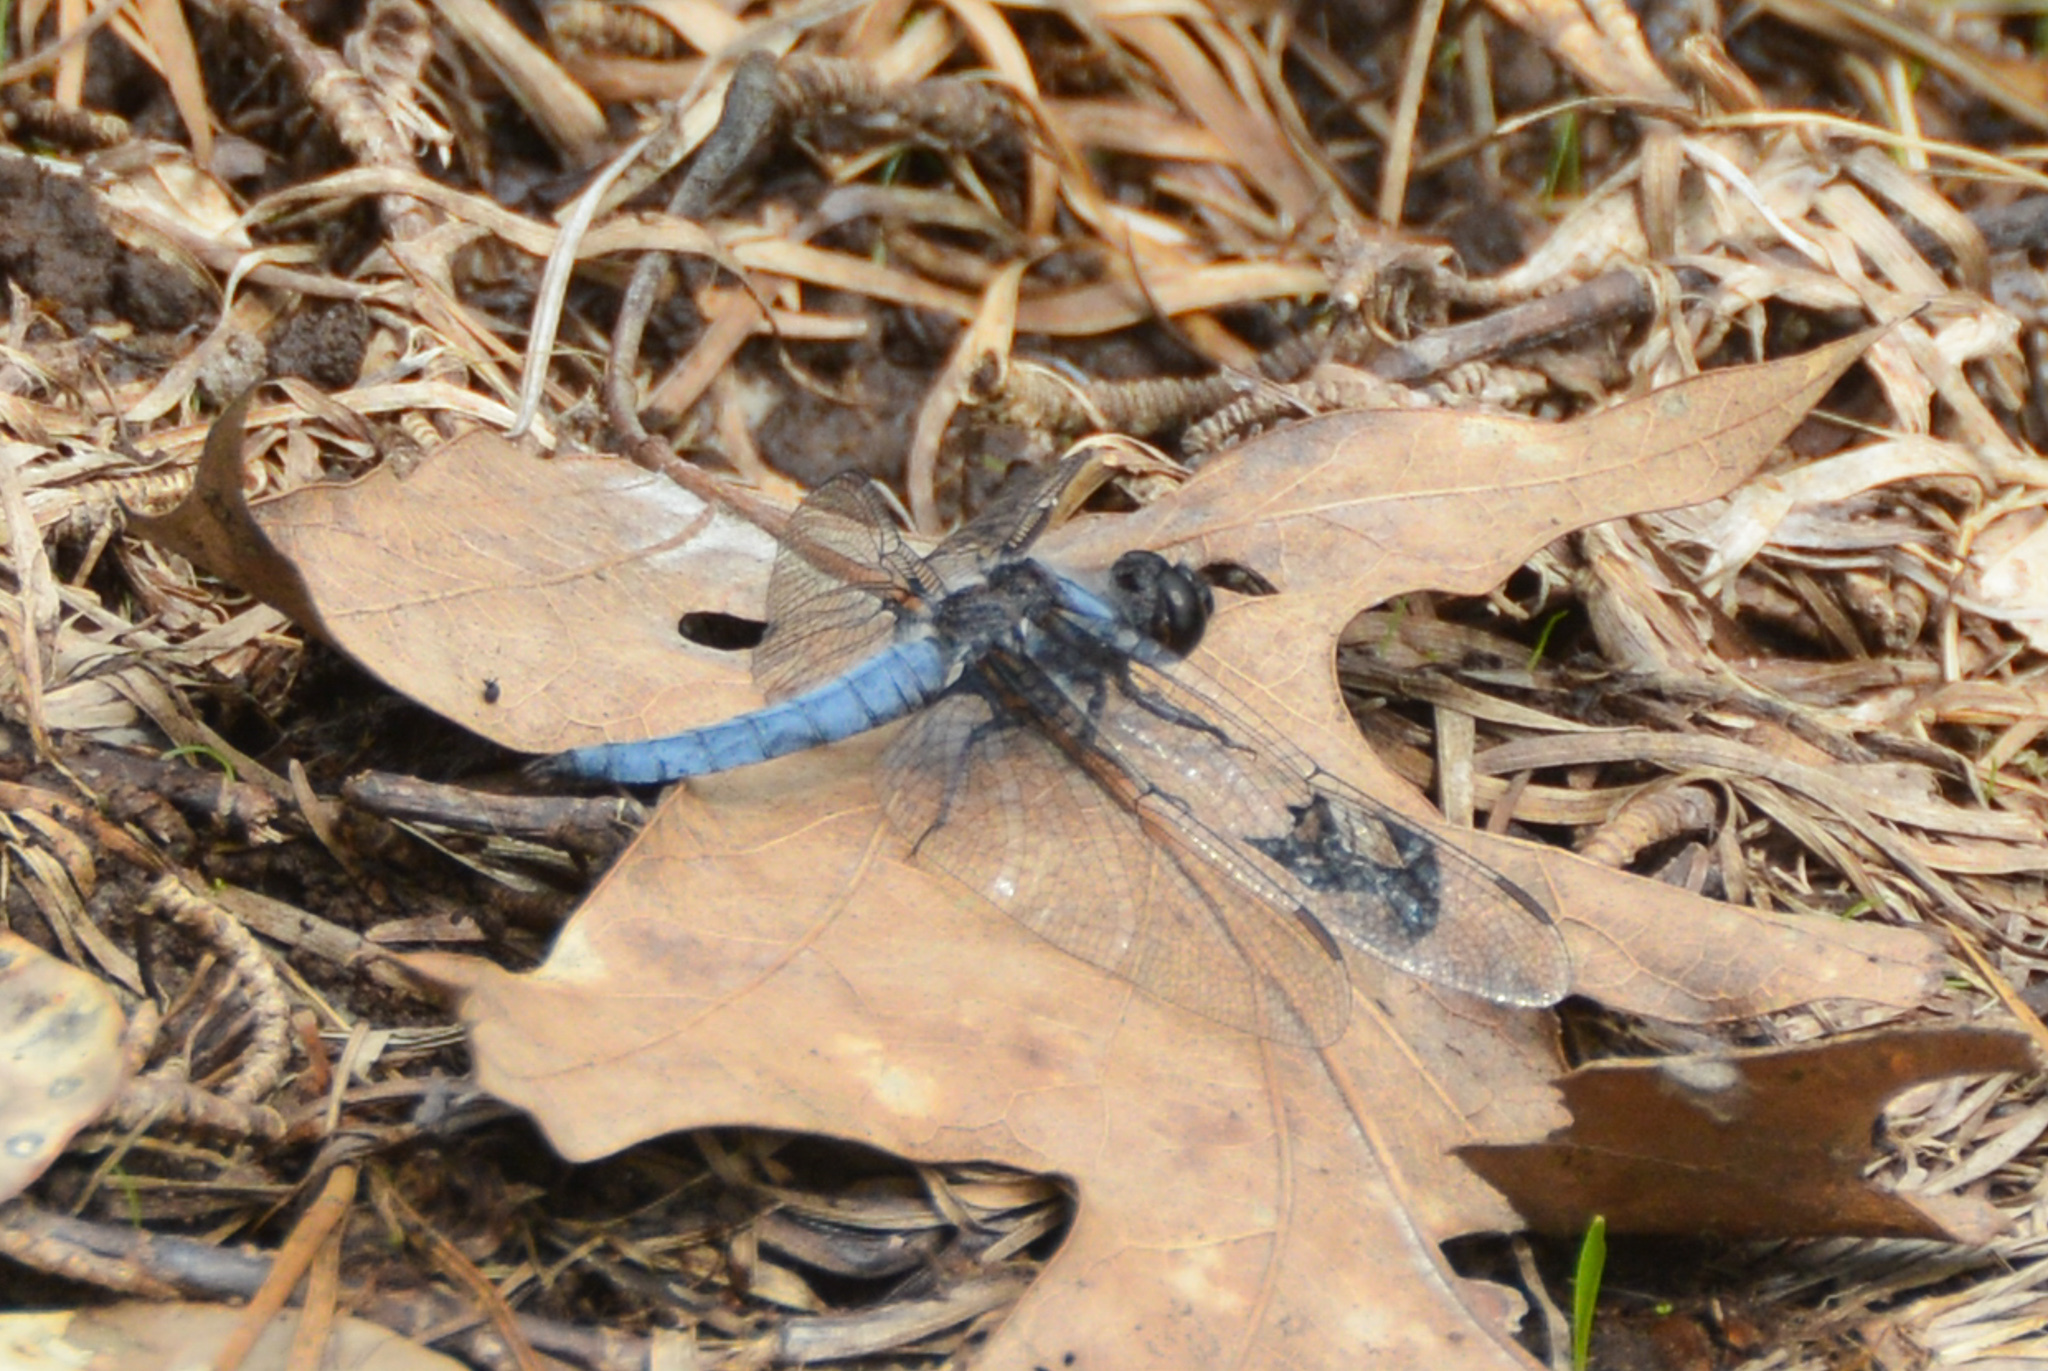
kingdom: Animalia
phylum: Arthropoda
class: Insecta
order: Odonata
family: Libellulidae
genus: Ladona
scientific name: Ladona deplanata
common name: Blue corporal
